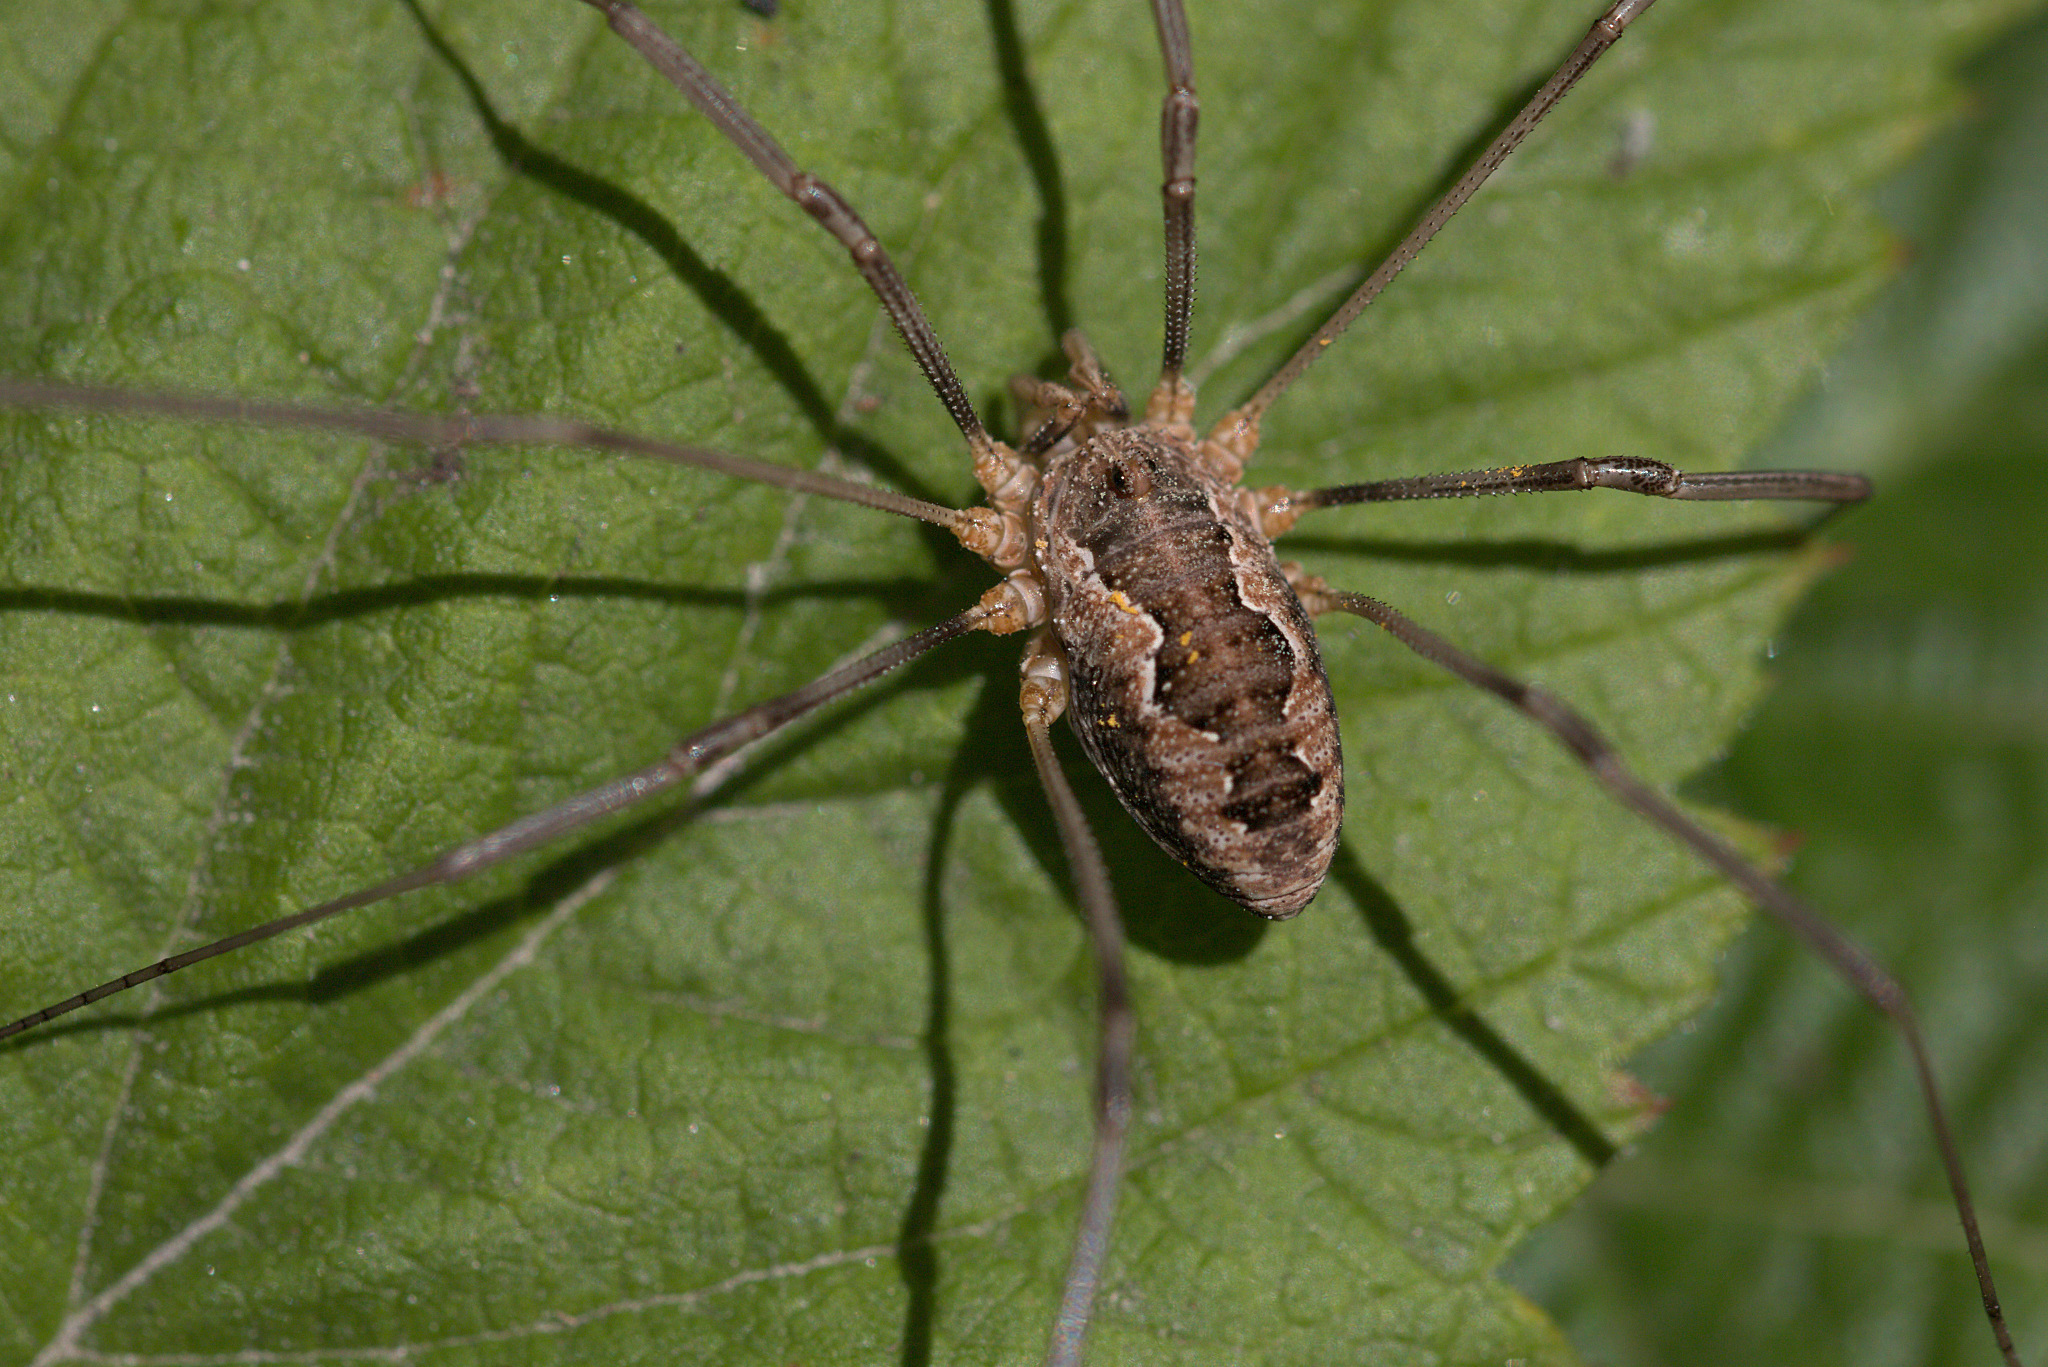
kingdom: Animalia
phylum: Arthropoda
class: Arachnida
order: Opiliones
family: Phalangiidae
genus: Phalangium
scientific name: Phalangium opilio
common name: Daddy longleg
